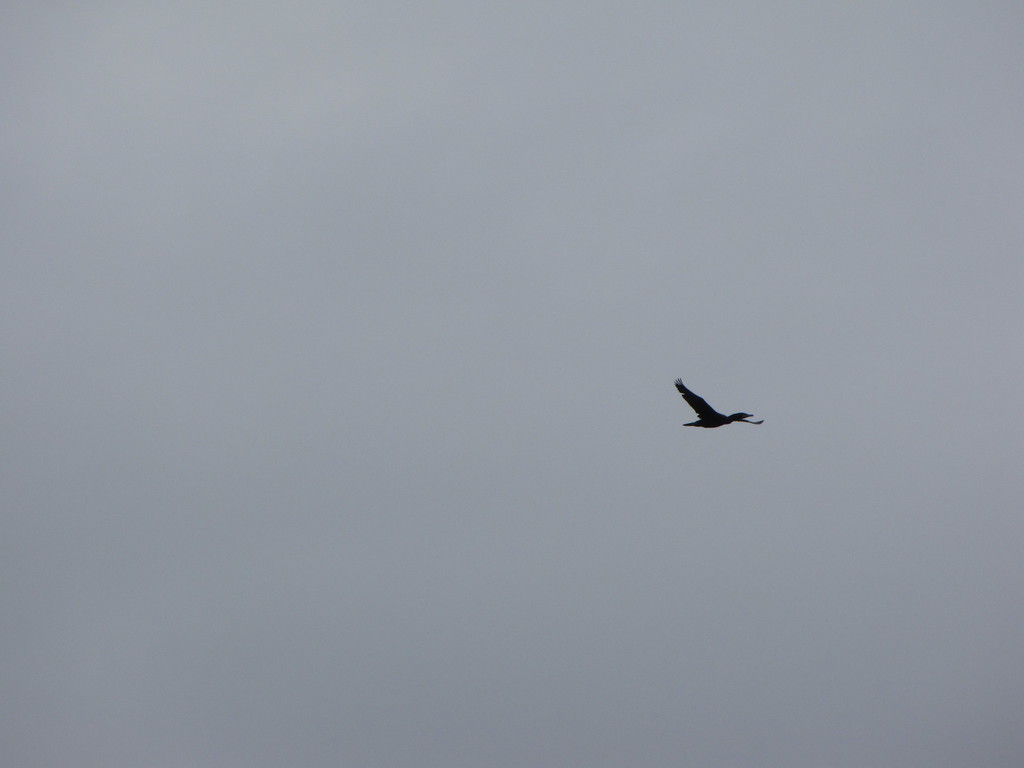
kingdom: Animalia
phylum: Chordata
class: Aves
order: Suliformes
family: Phalacrocoracidae
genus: Phalacrocorax
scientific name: Phalacrocorax auritus
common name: Double-crested cormorant
